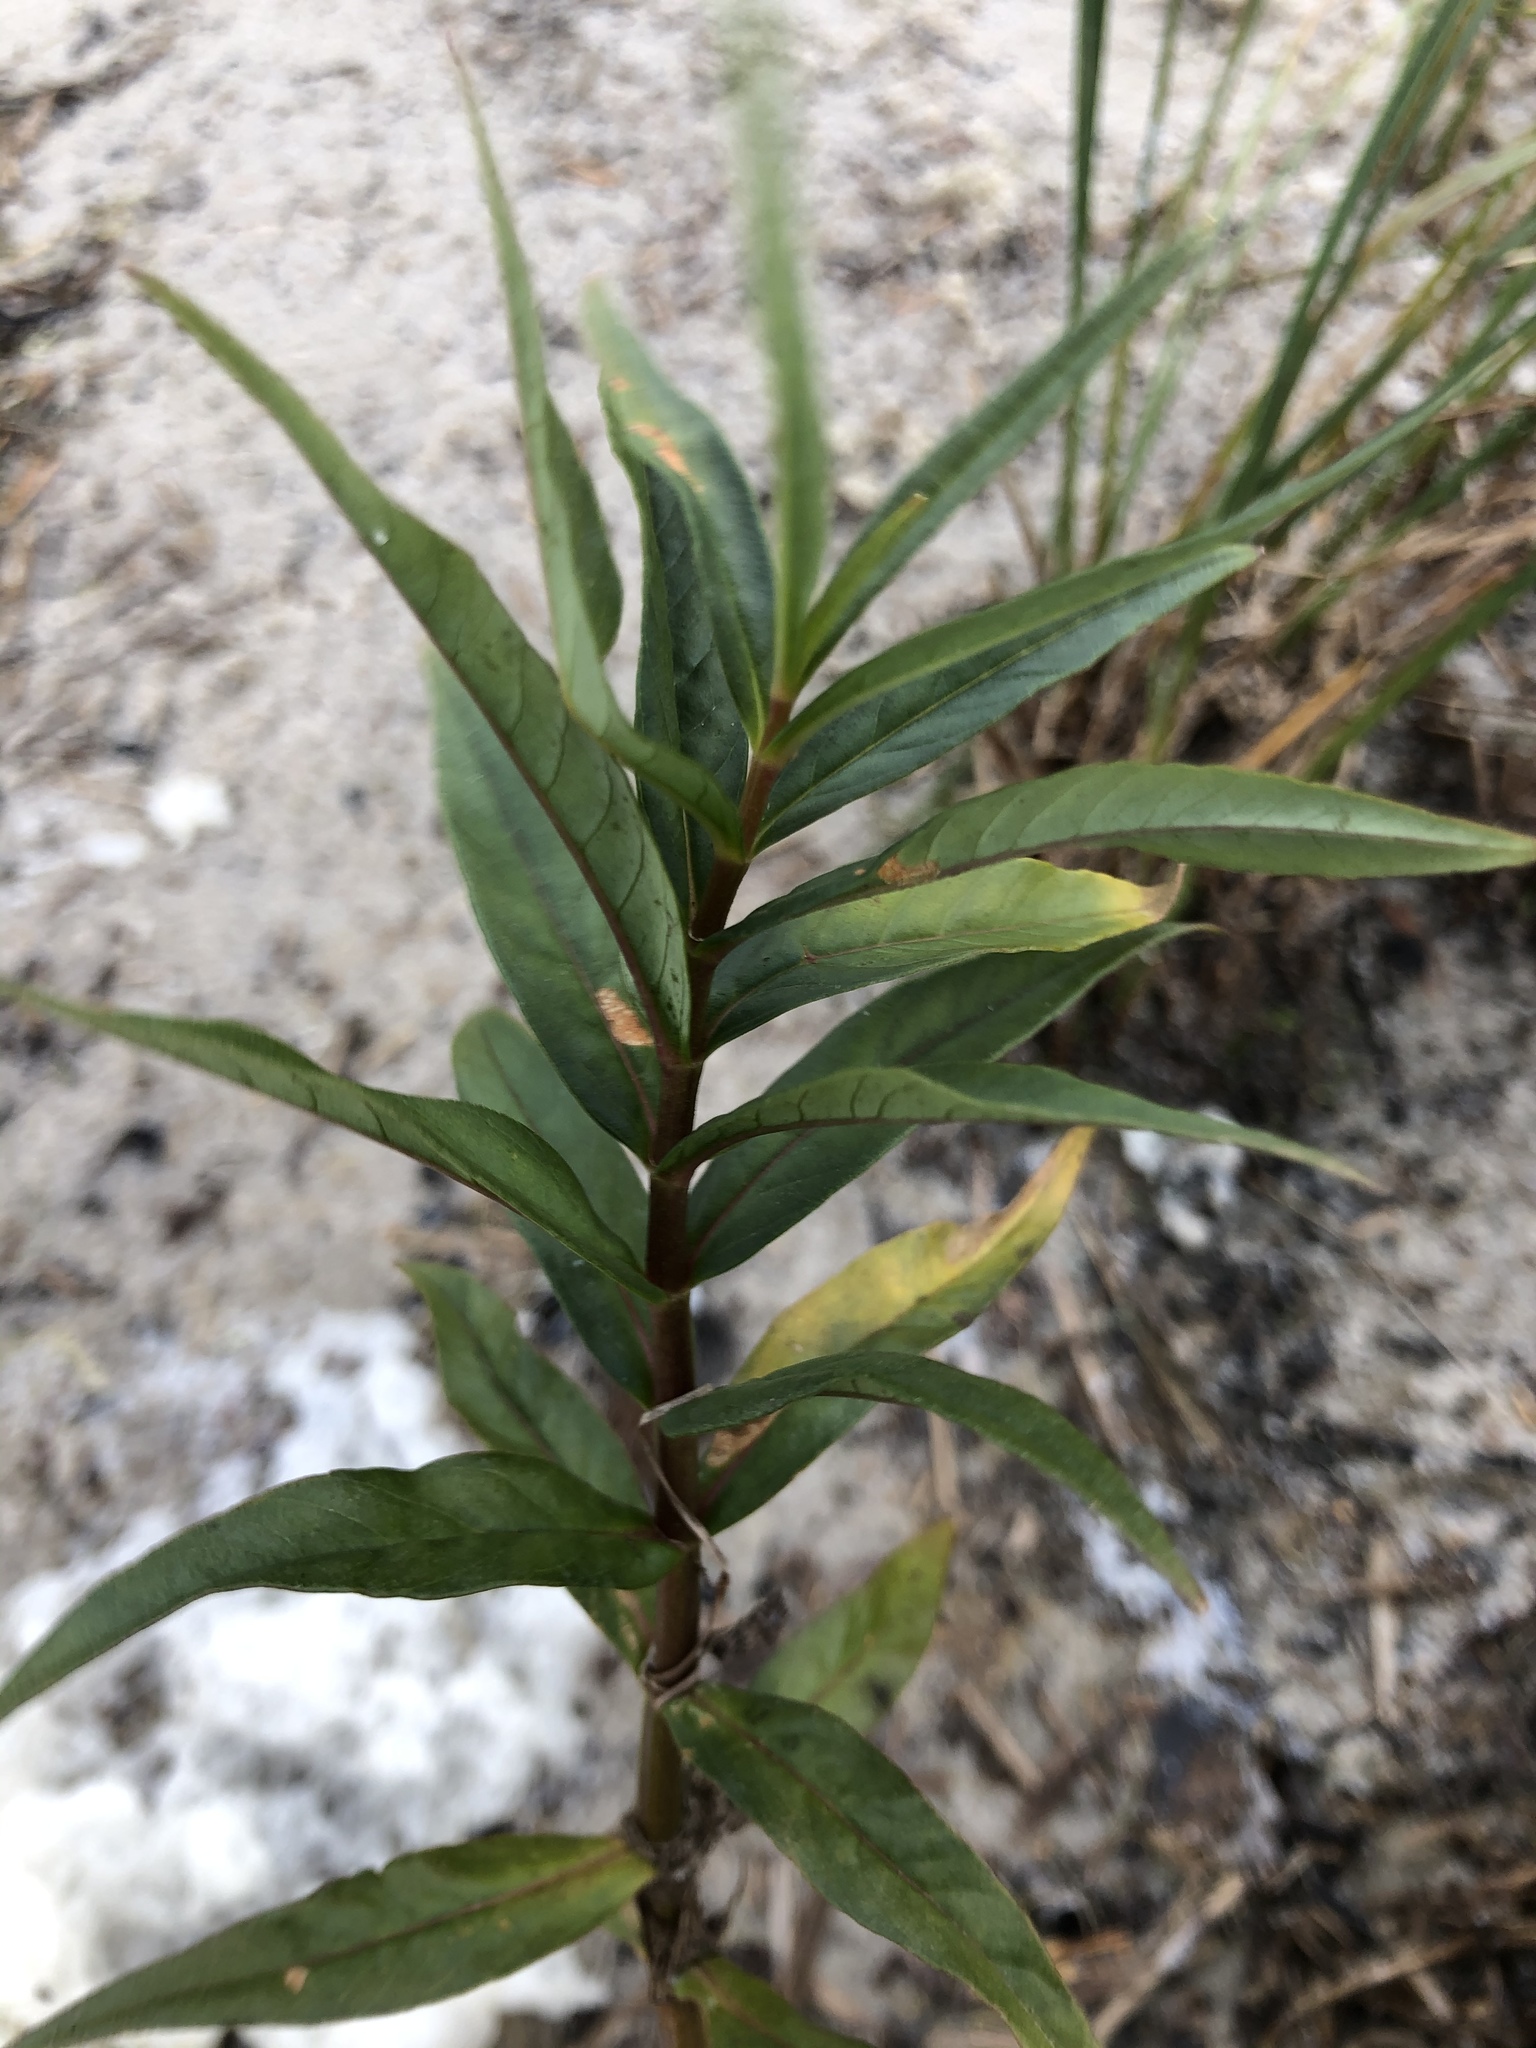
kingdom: Plantae
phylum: Tracheophyta
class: Magnoliopsida
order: Ericales
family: Primulaceae
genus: Lysimachia
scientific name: Lysimachia thyrsiflora
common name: Tufted loosestrife
